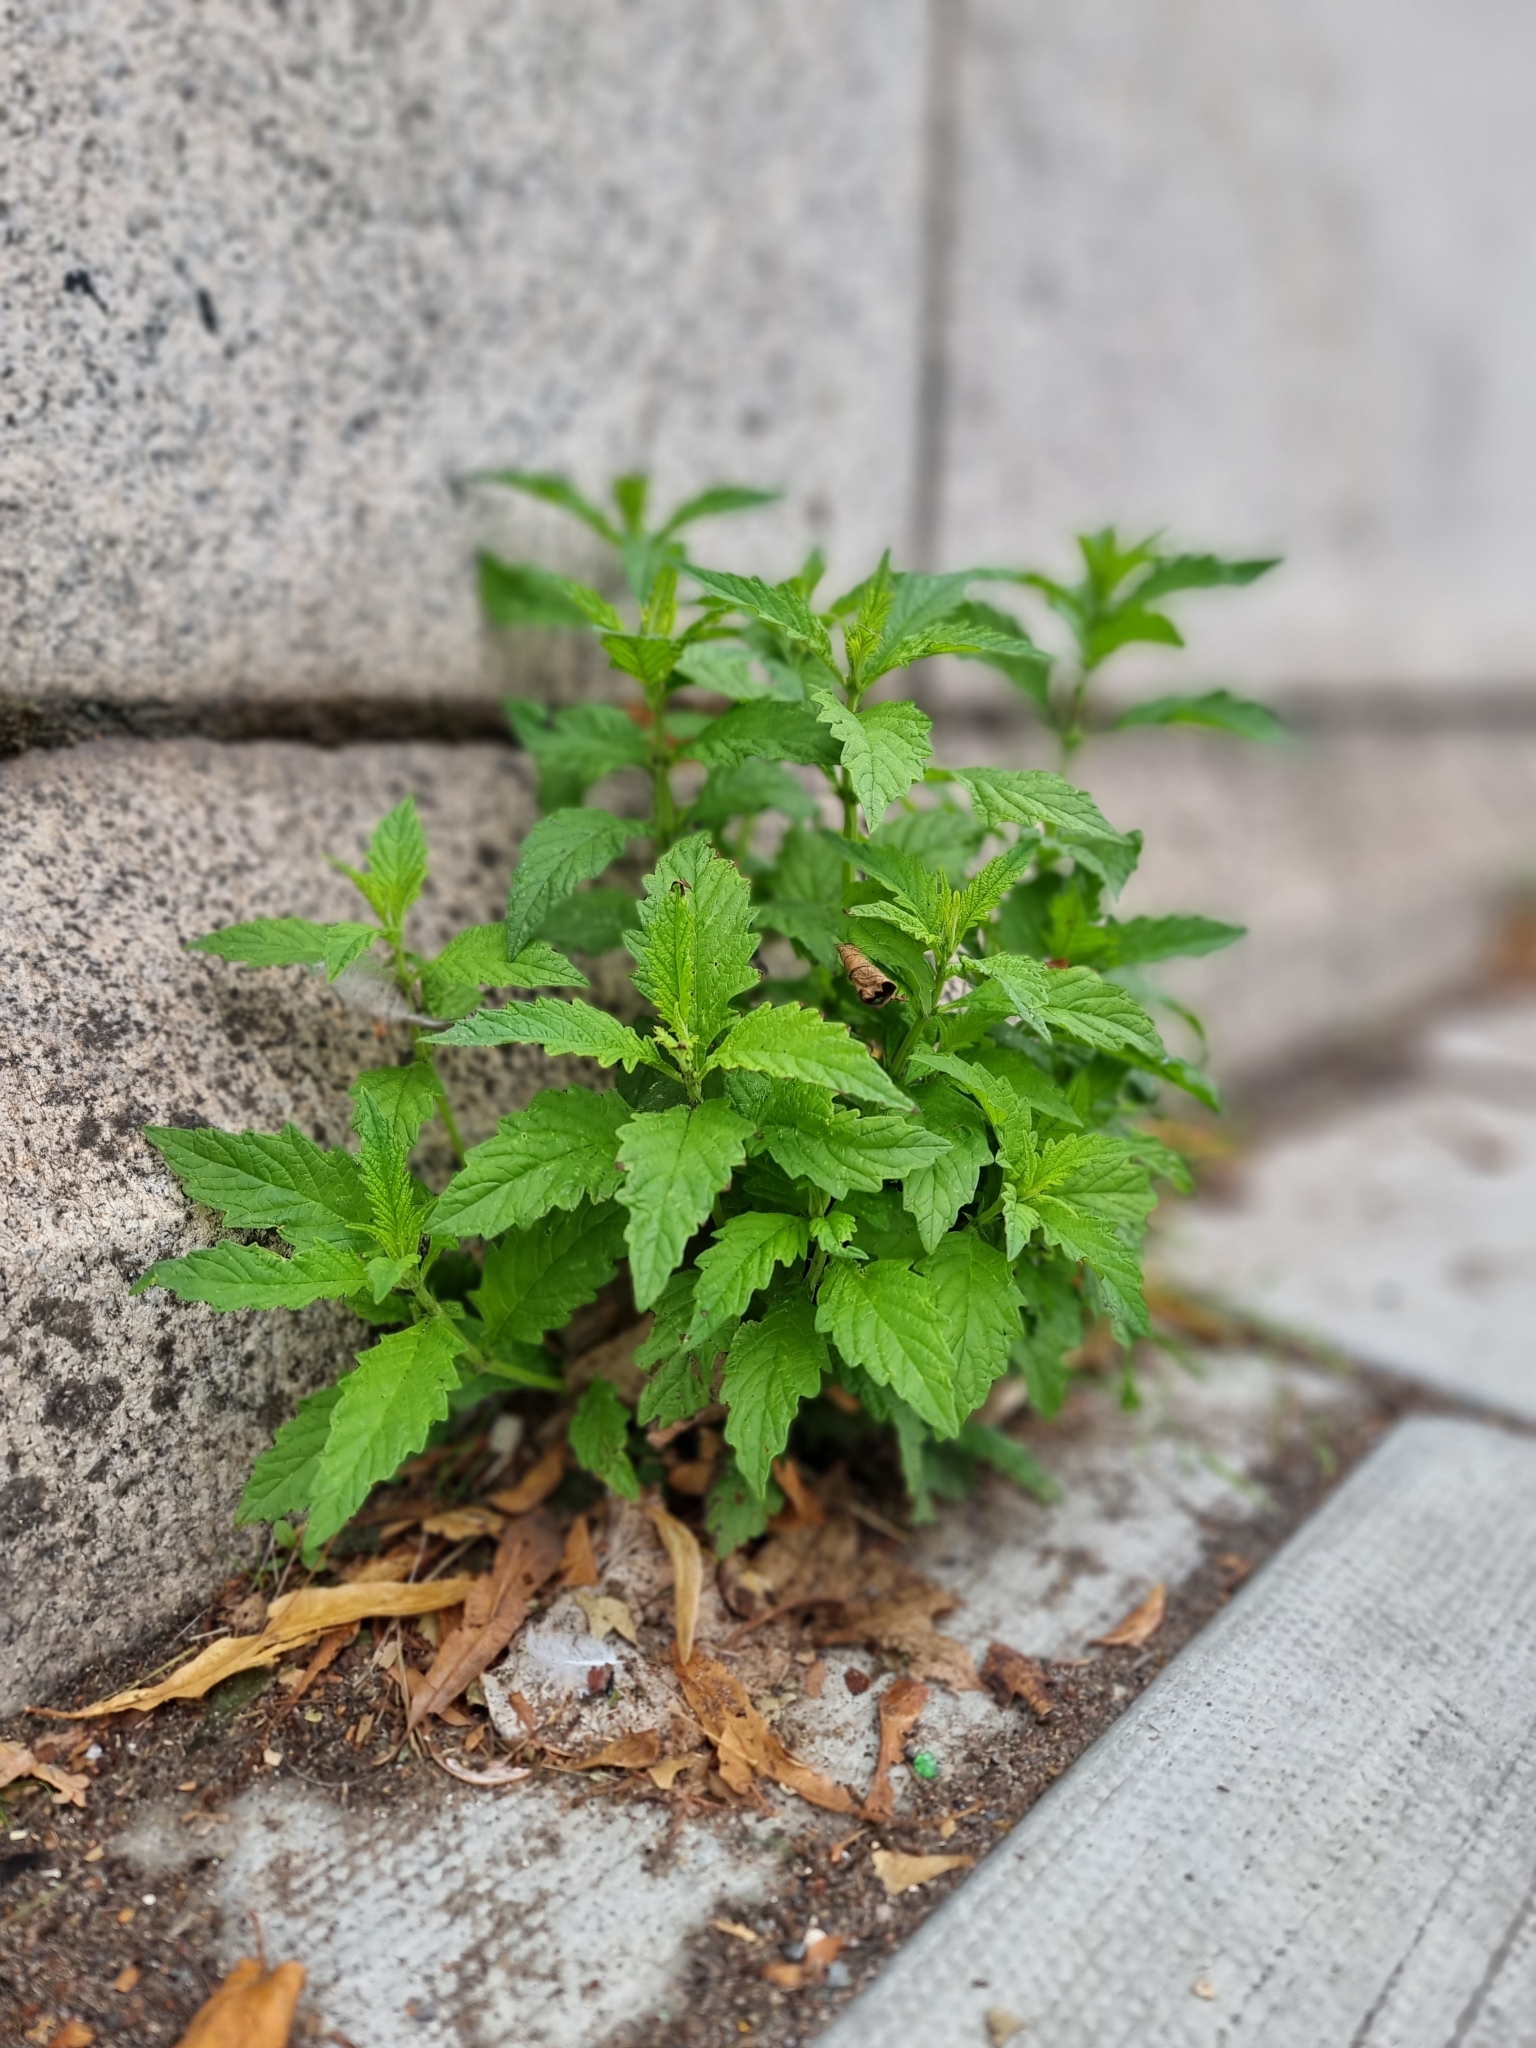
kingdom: Plantae
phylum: Tracheophyta
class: Magnoliopsida
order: Lamiales
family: Lamiaceae
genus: Lycopus
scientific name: Lycopus europaeus
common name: European bugleweed
